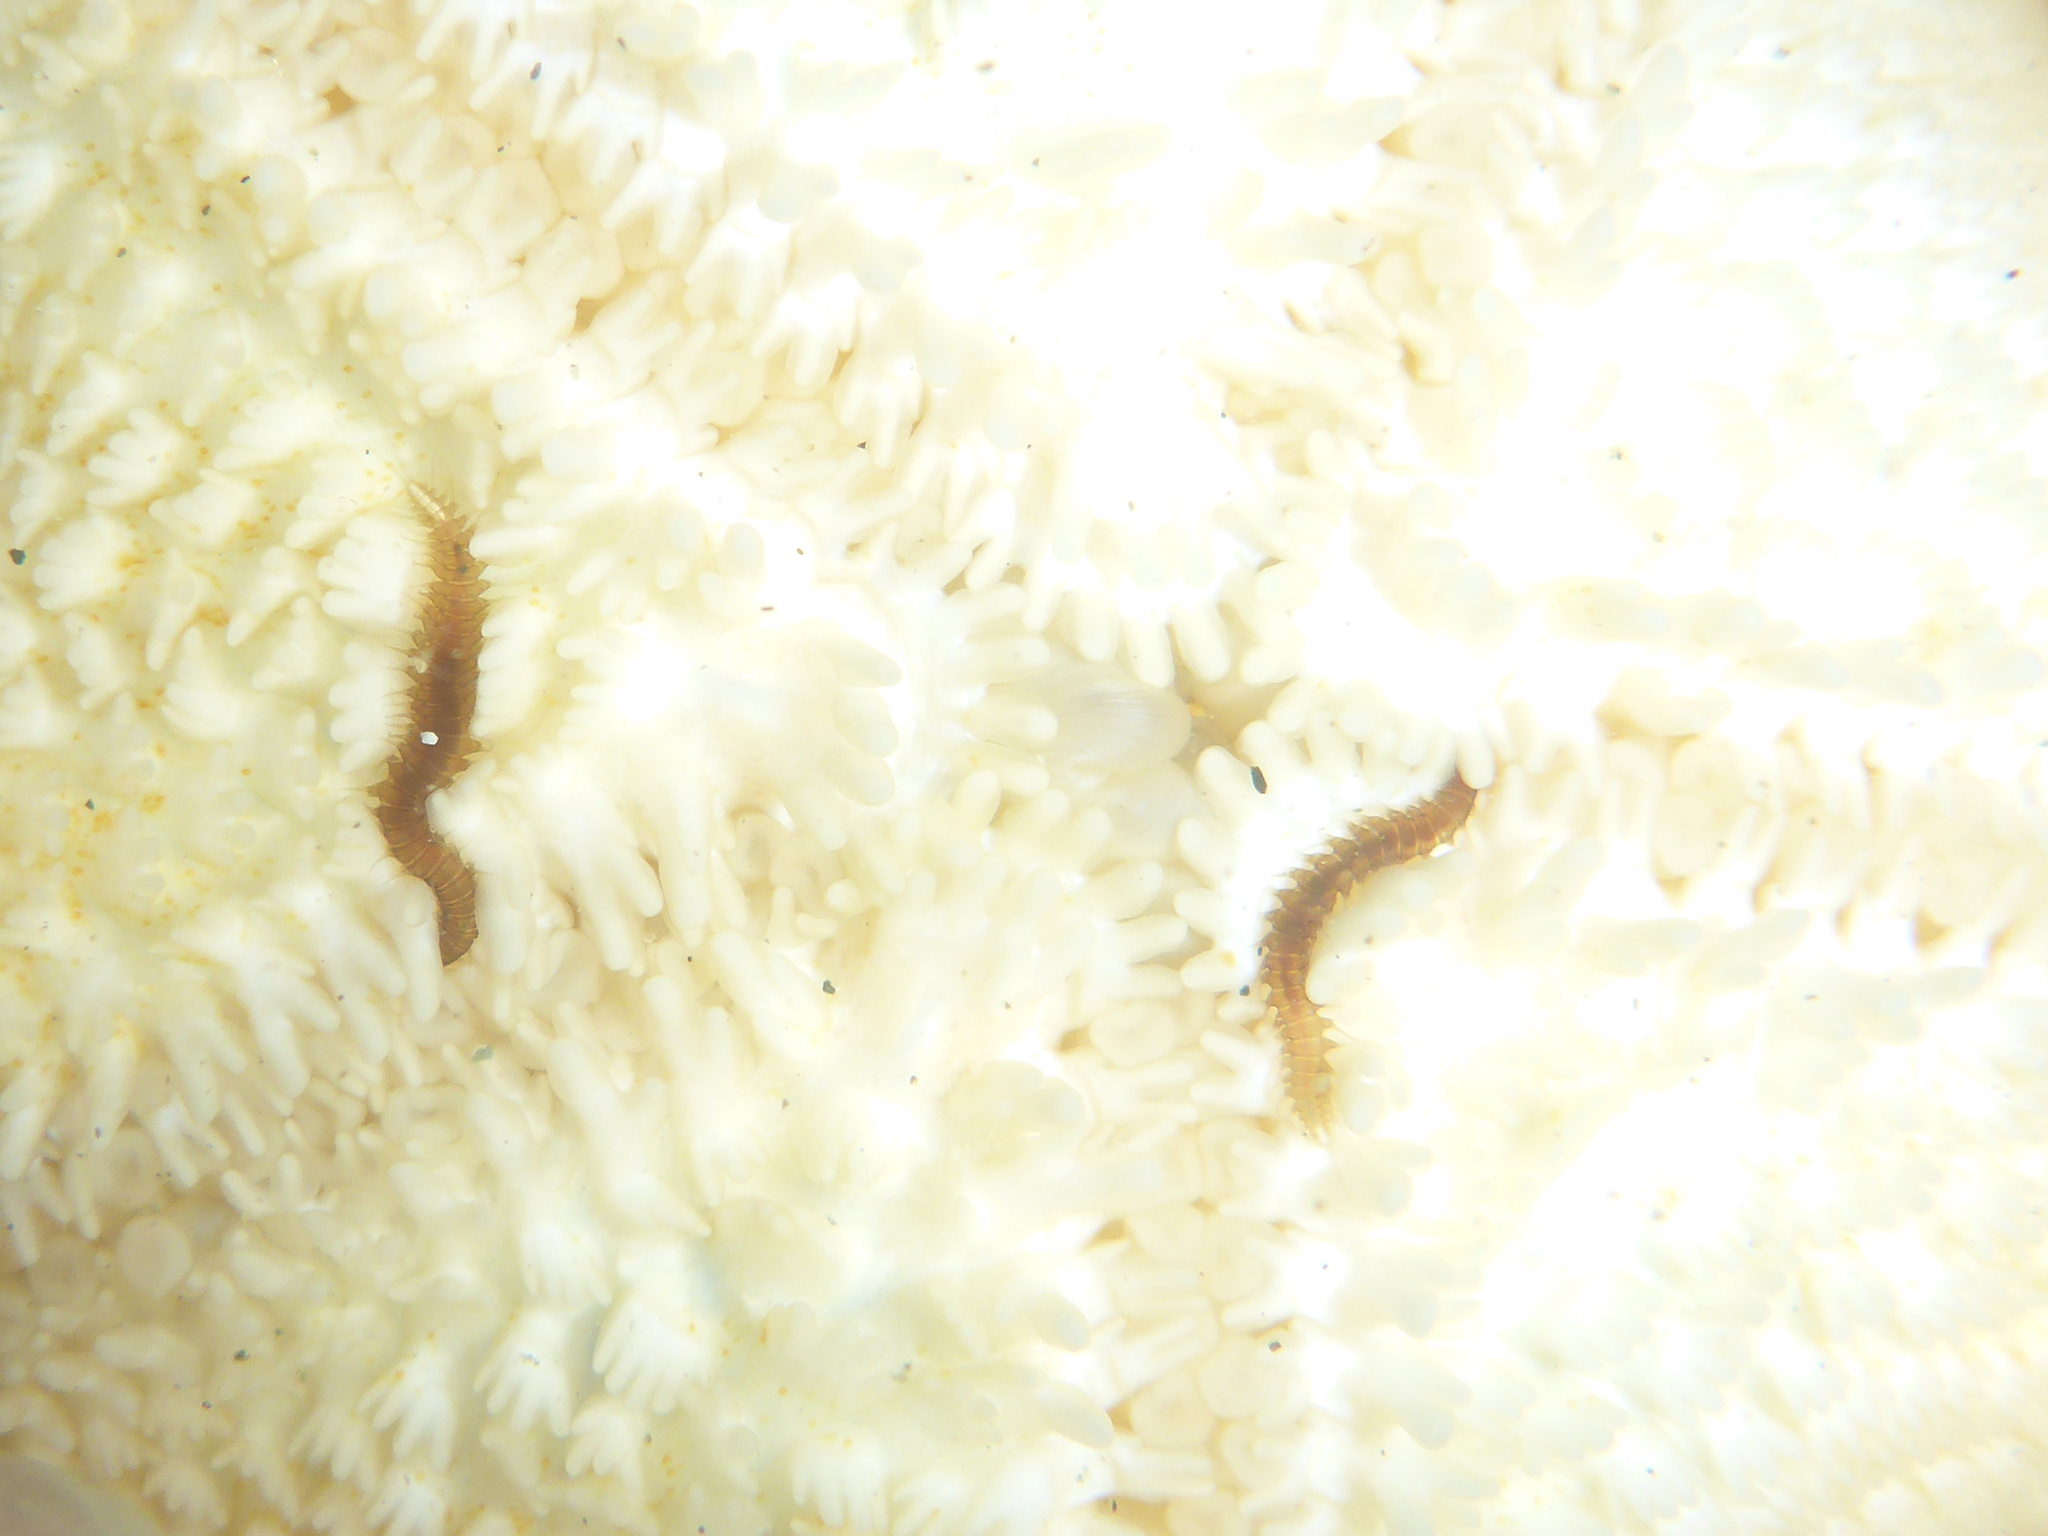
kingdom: Animalia
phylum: Annelida
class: Polychaeta
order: Phyllodocida
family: Hesionidae
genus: Oxydromus
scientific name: Oxydromus pugettensis
